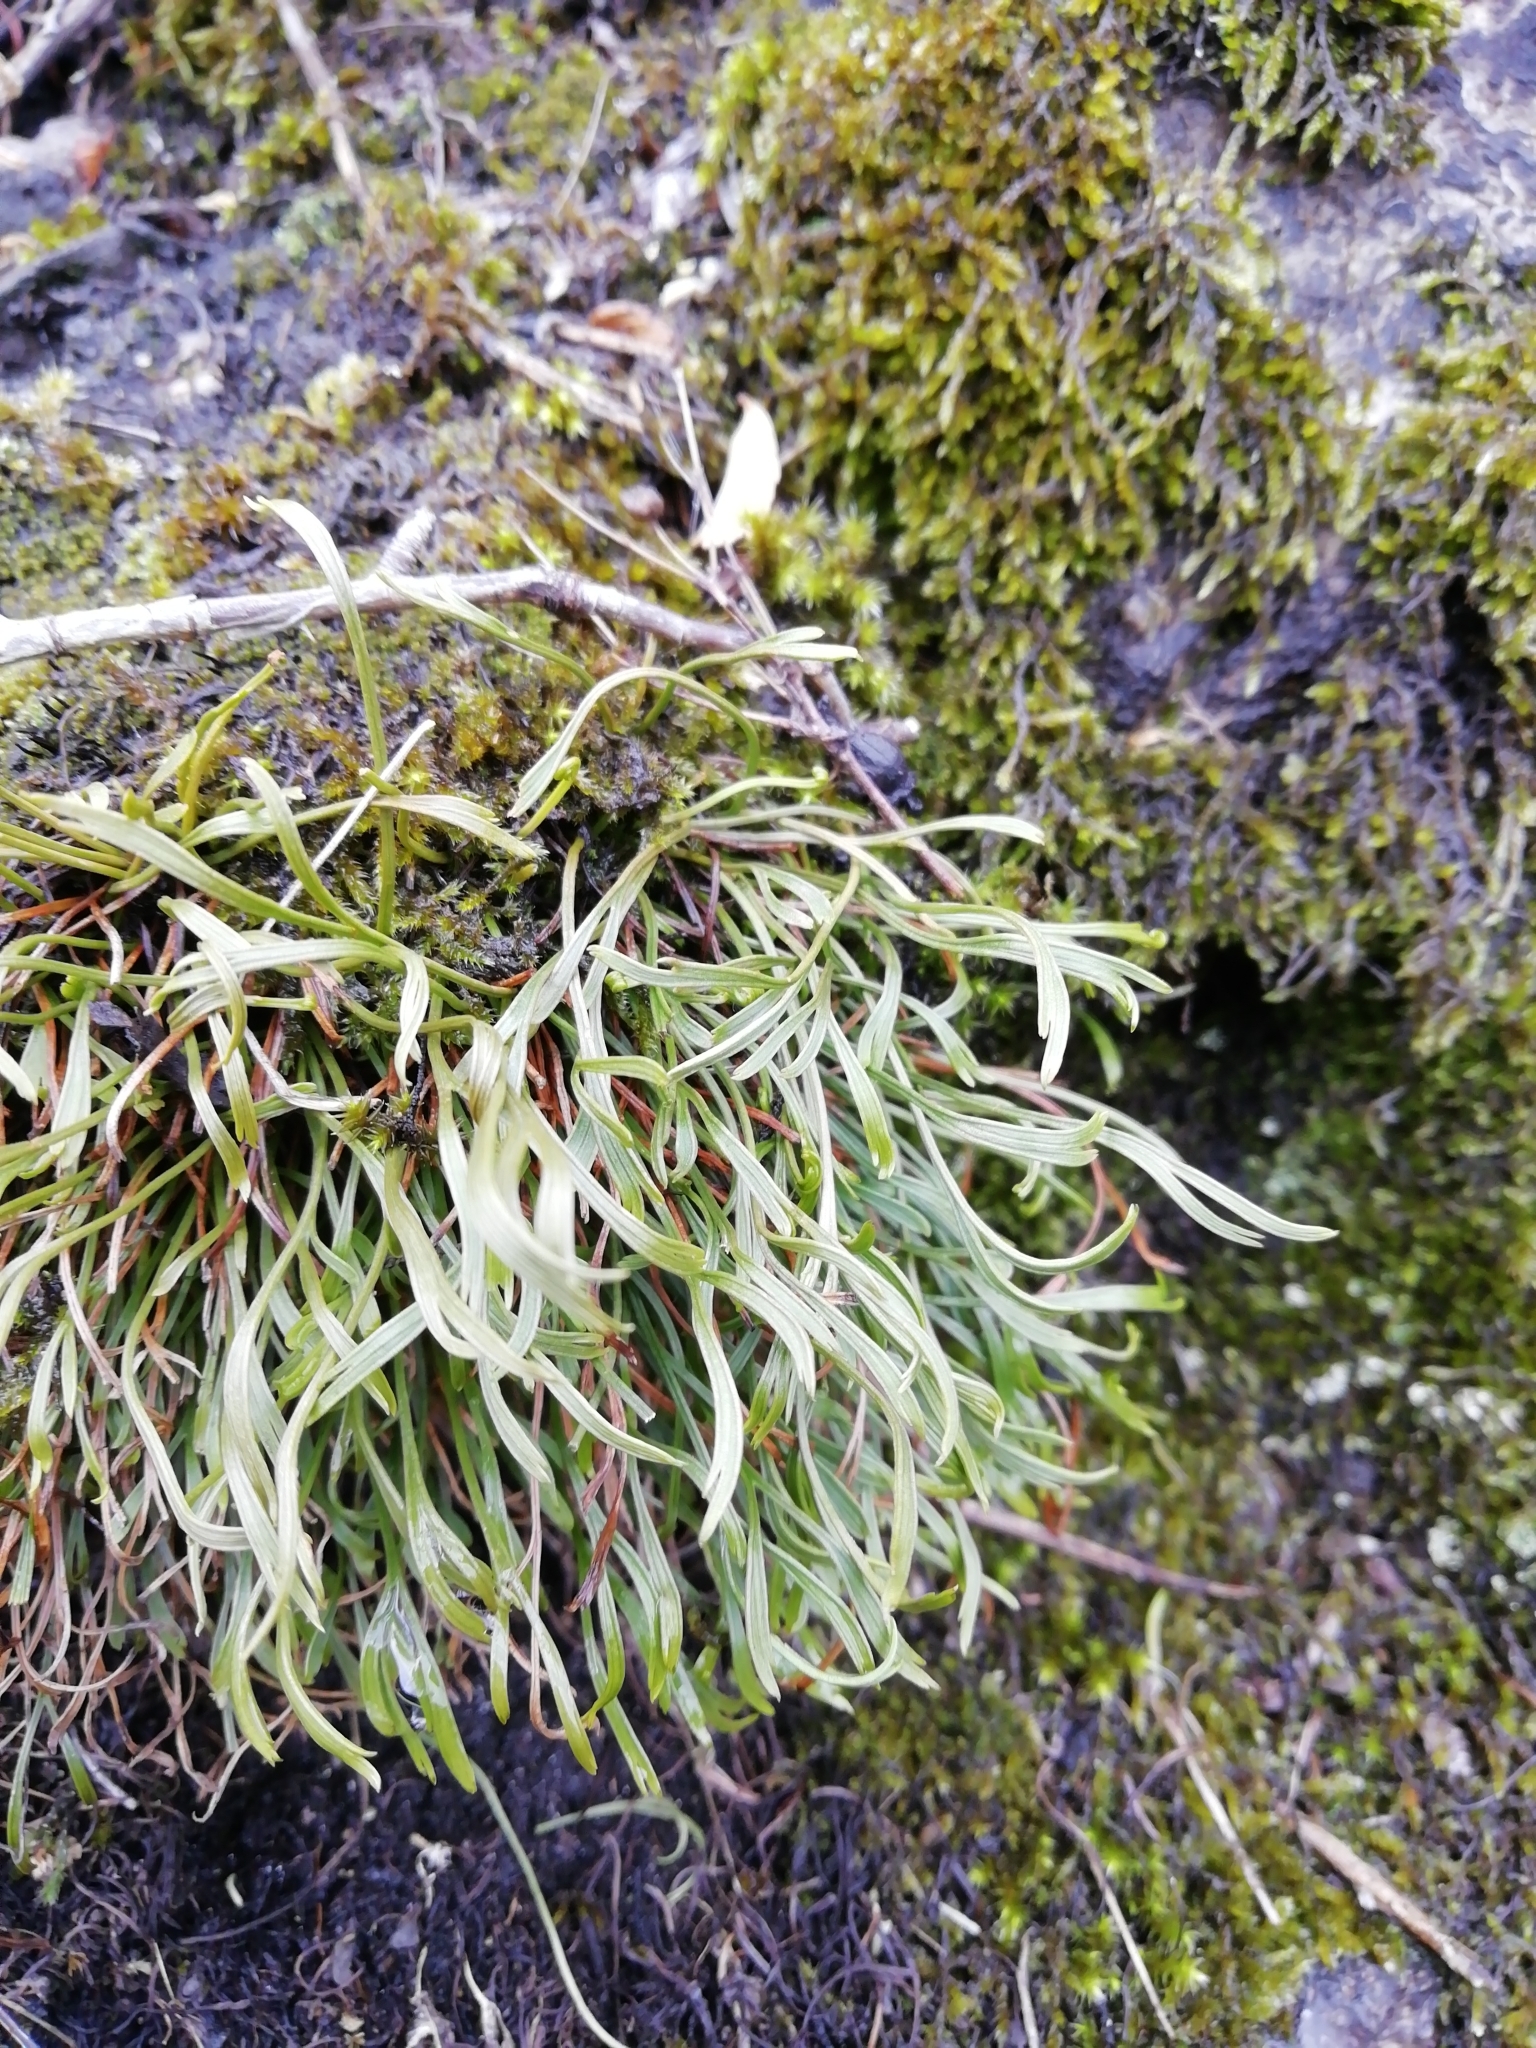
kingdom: Plantae
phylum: Tracheophyta
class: Polypodiopsida
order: Polypodiales
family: Aspleniaceae
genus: Asplenium
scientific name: Asplenium septentrionale
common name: Forked spleenwort
